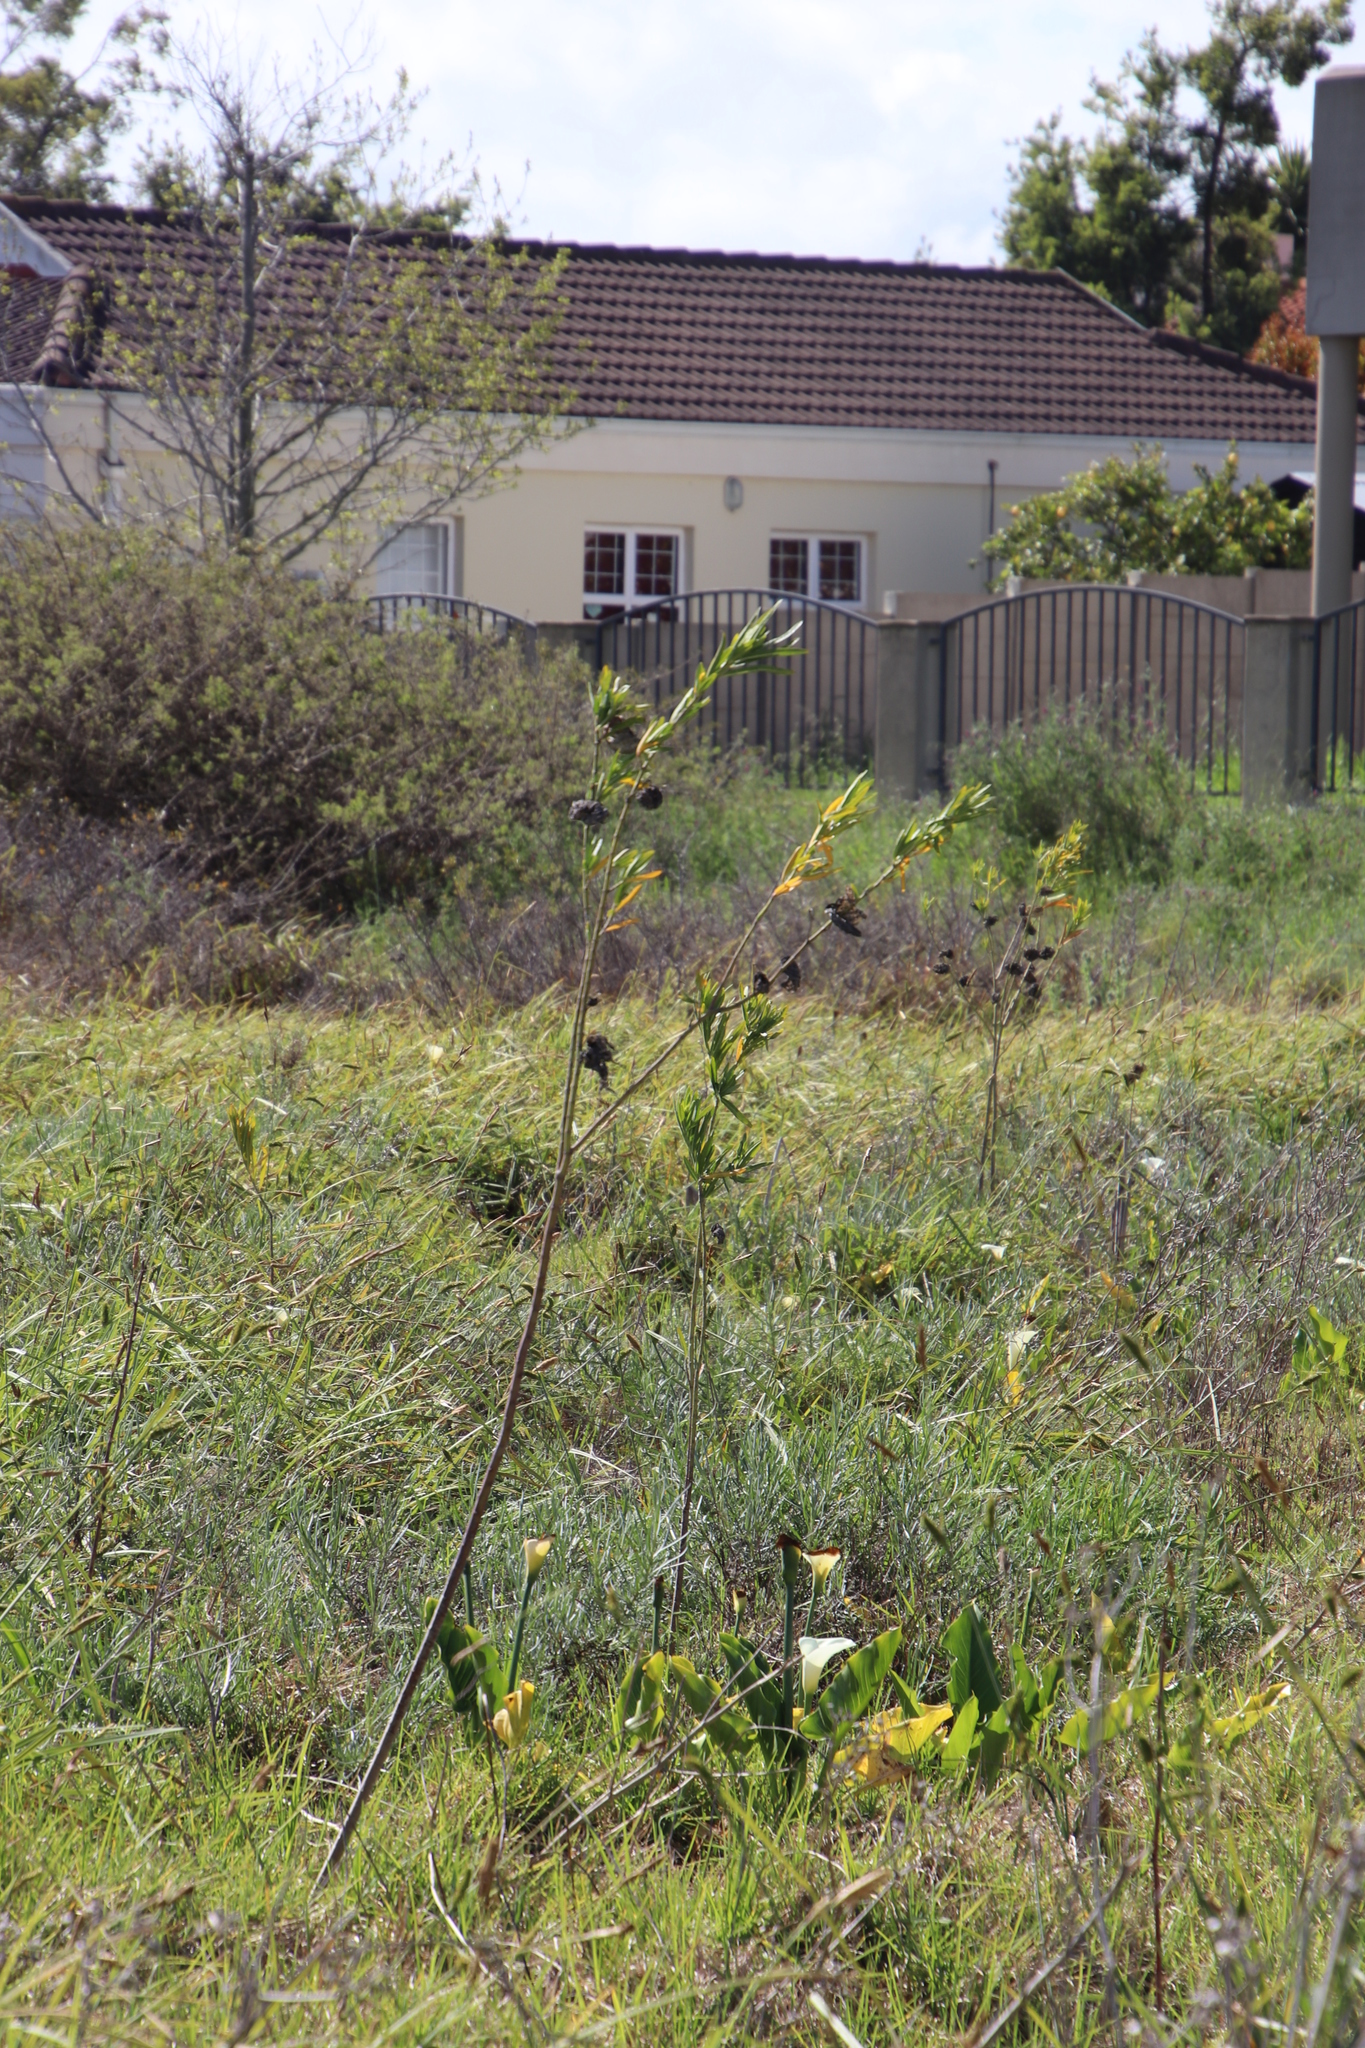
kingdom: Plantae
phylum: Tracheophyta
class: Magnoliopsida
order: Gentianales
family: Apocynaceae
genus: Gomphocarpus
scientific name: Gomphocarpus fruticosus
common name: Milkweed
